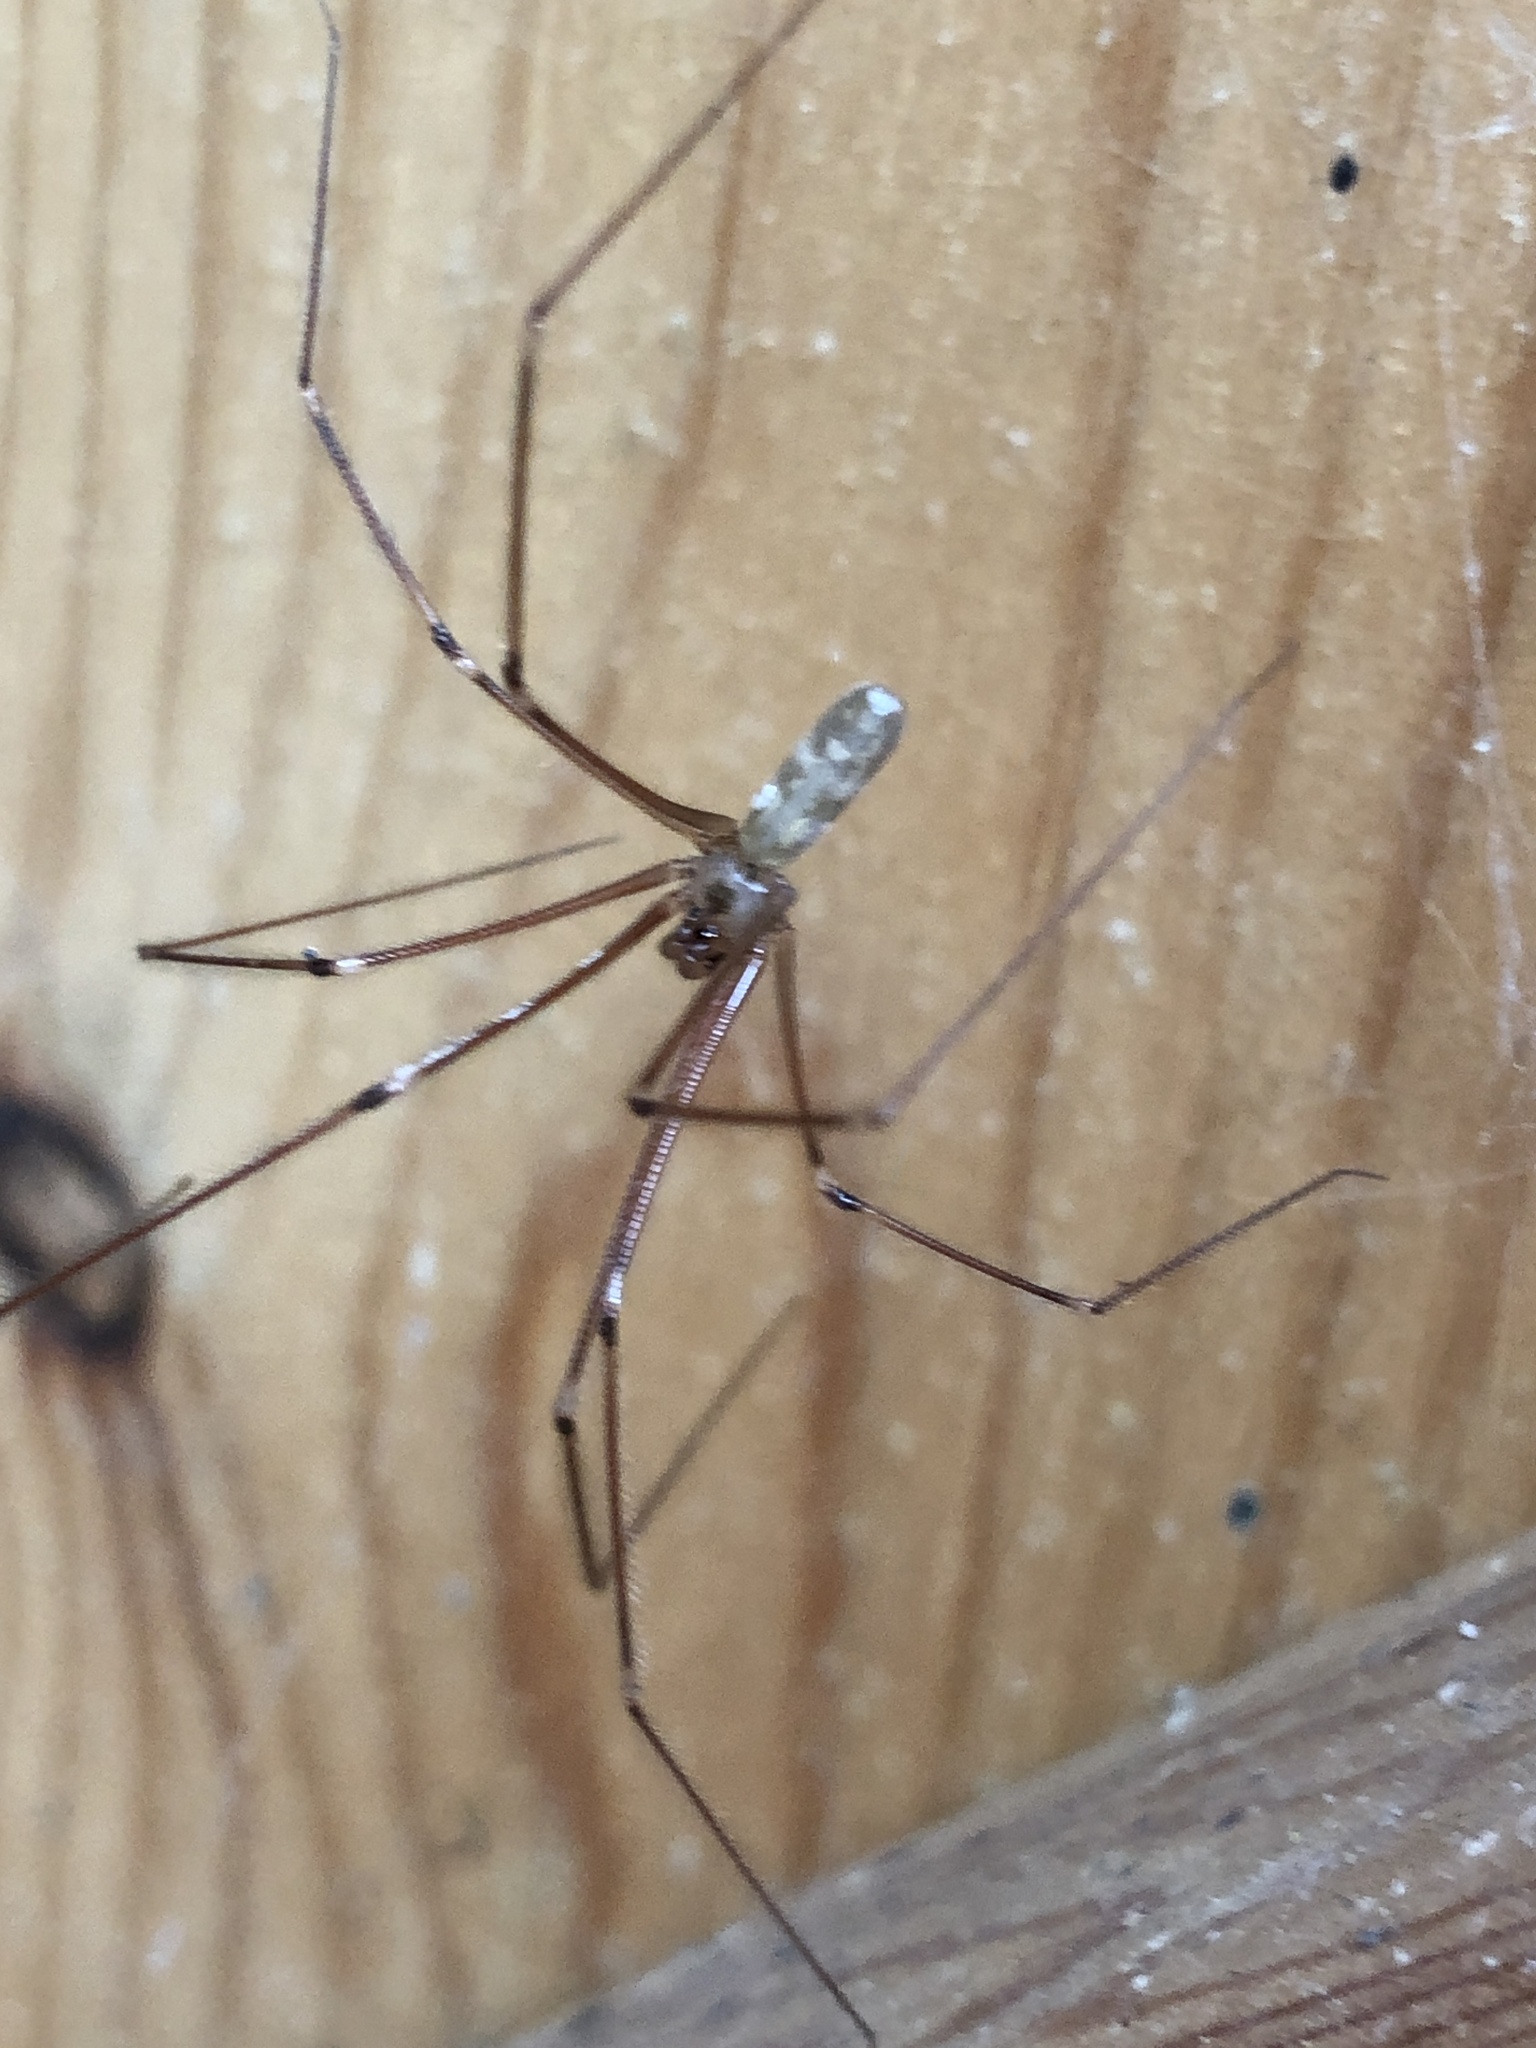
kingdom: Animalia
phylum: Arthropoda
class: Arachnida
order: Araneae
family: Pholcidae
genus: Pholcus
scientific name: Pholcus phalangioides
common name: Longbodied cellar spider
